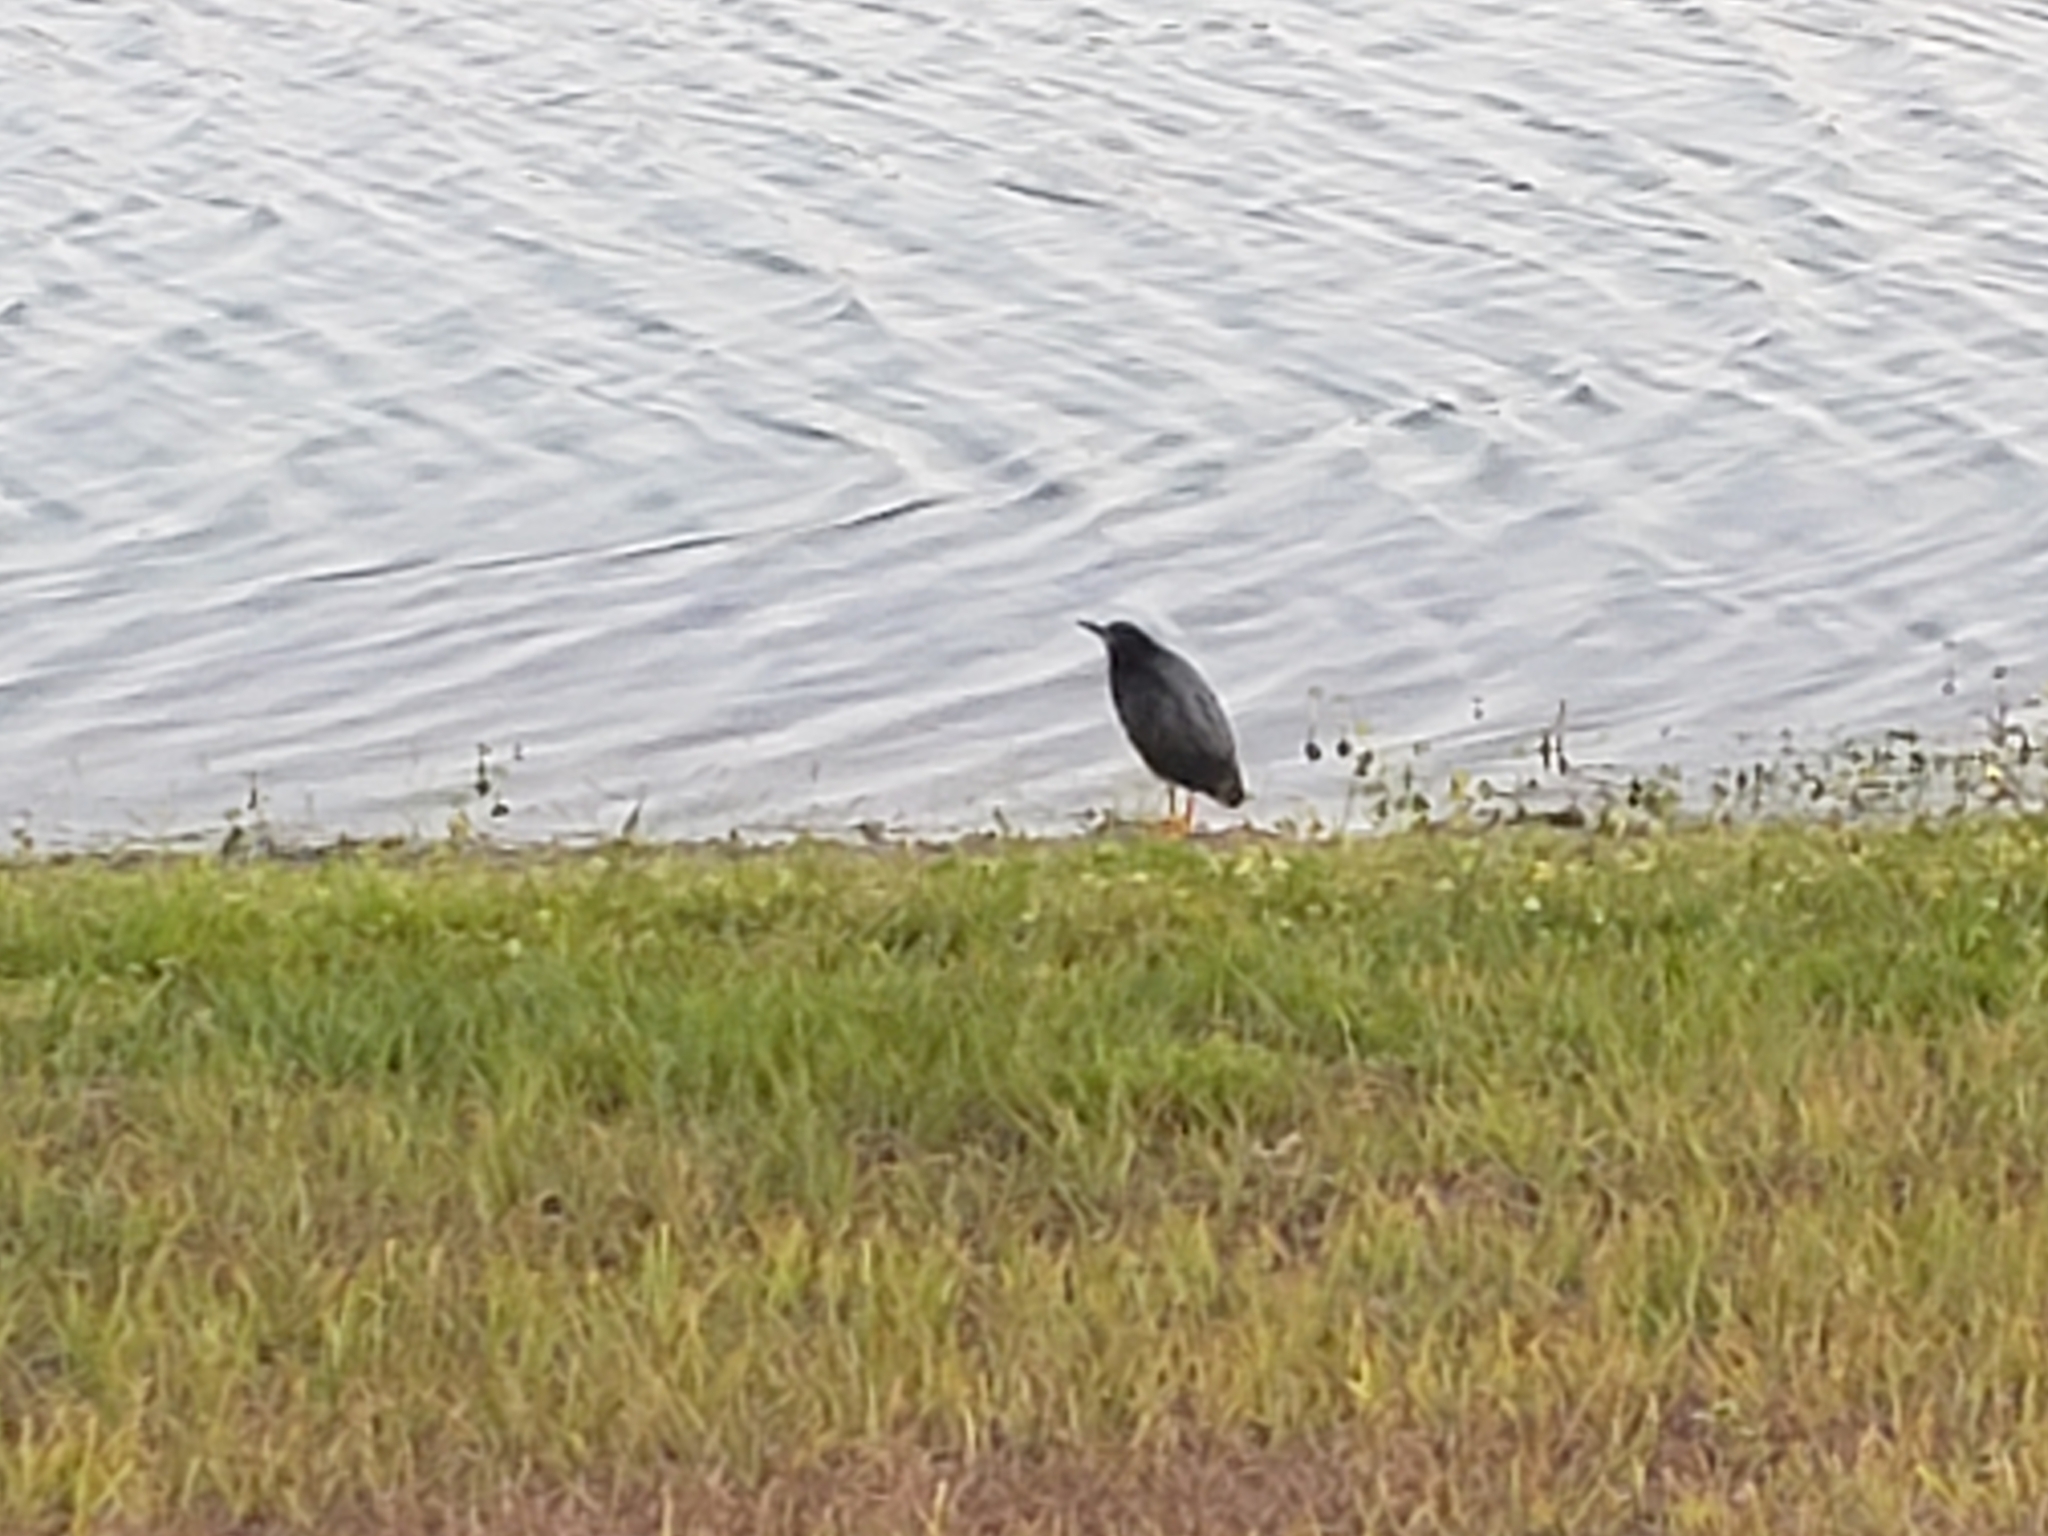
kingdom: Animalia
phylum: Chordata
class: Aves
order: Pelecaniformes
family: Ardeidae
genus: Butorides
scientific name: Butorides virescens
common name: Green heron
